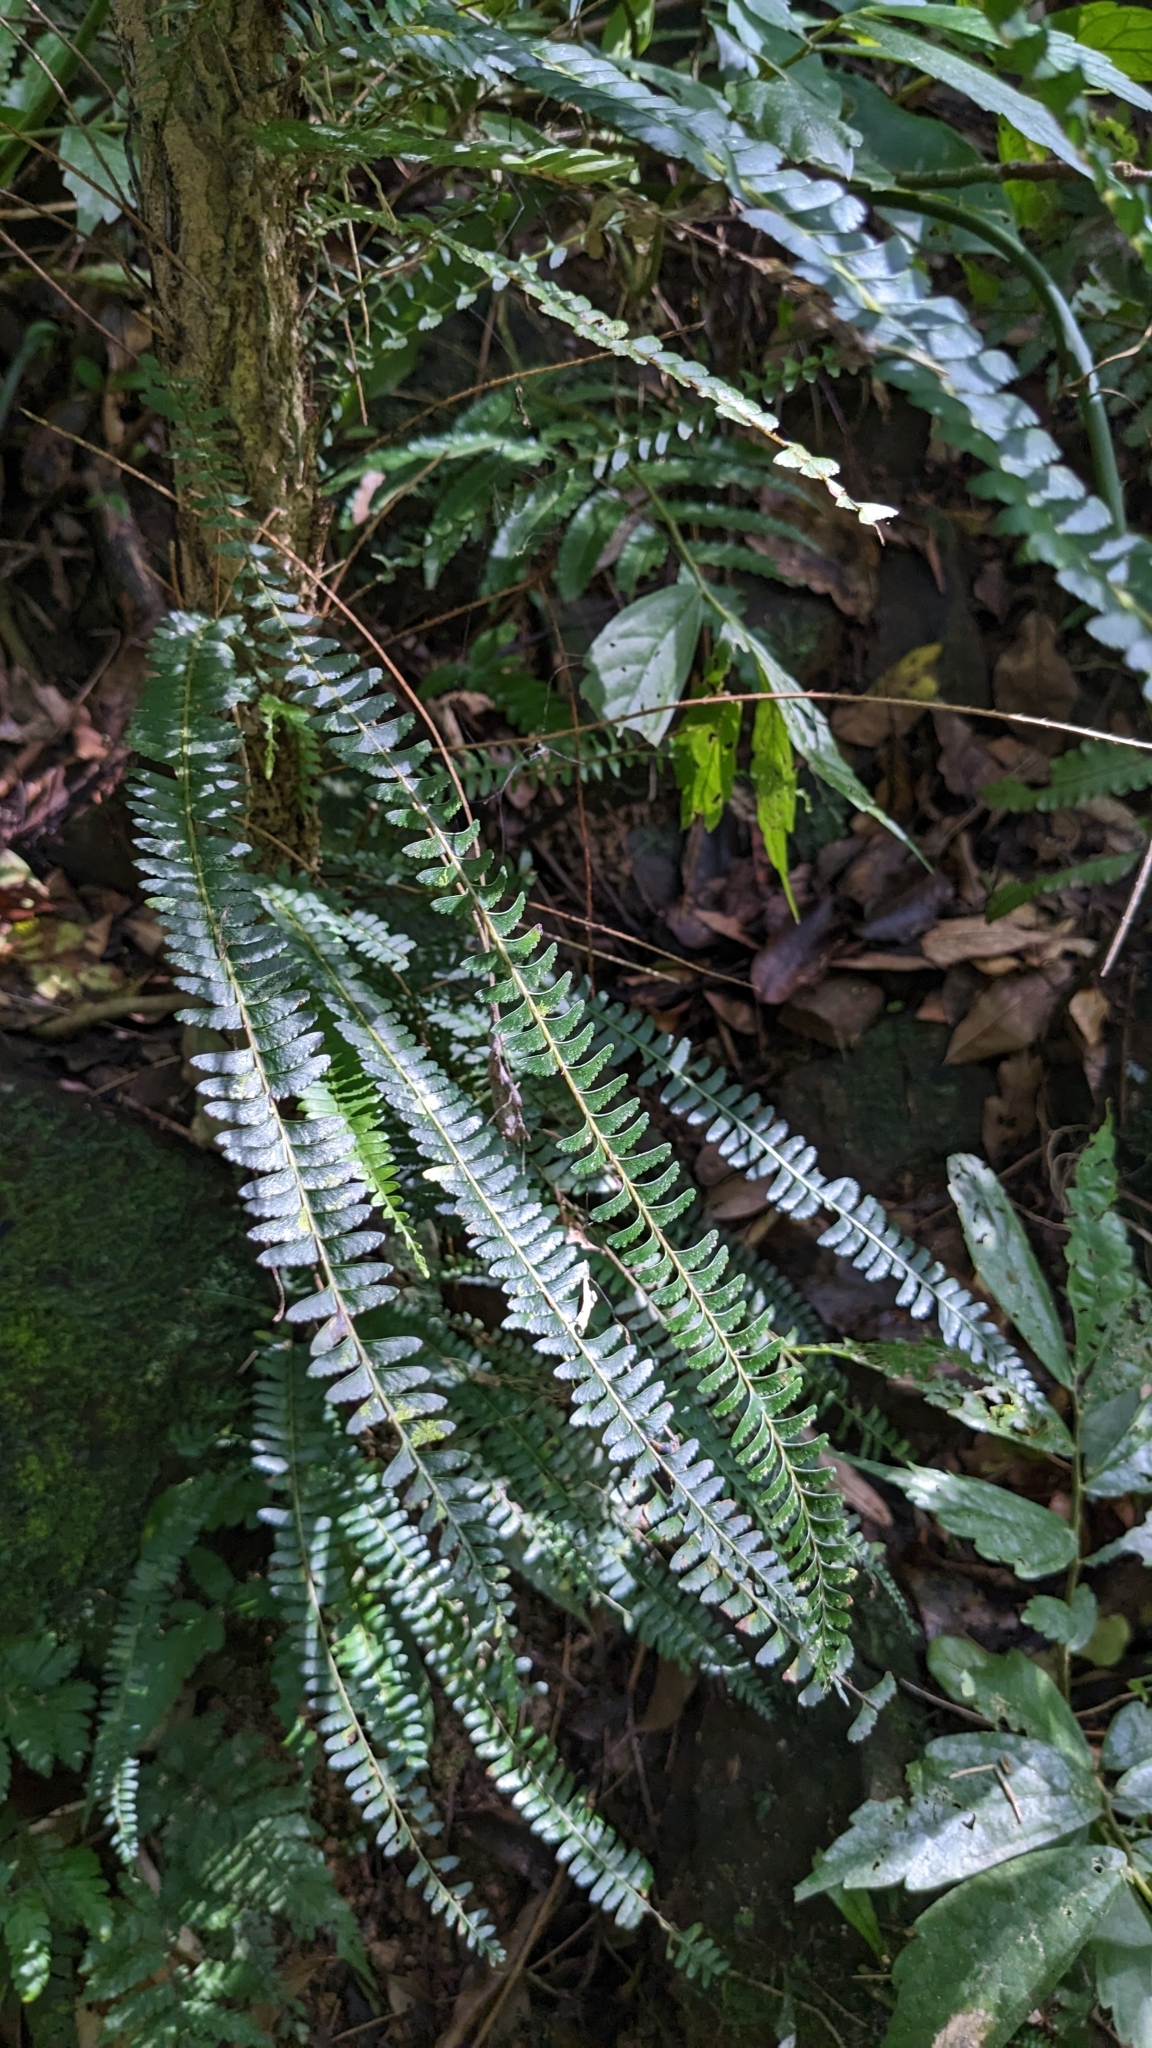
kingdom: Plantae
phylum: Tracheophyta
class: Polypodiopsida
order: Polypodiales
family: Lindsaeaceae
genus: Lindsaea
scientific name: Lindsaea yaeyamensis
